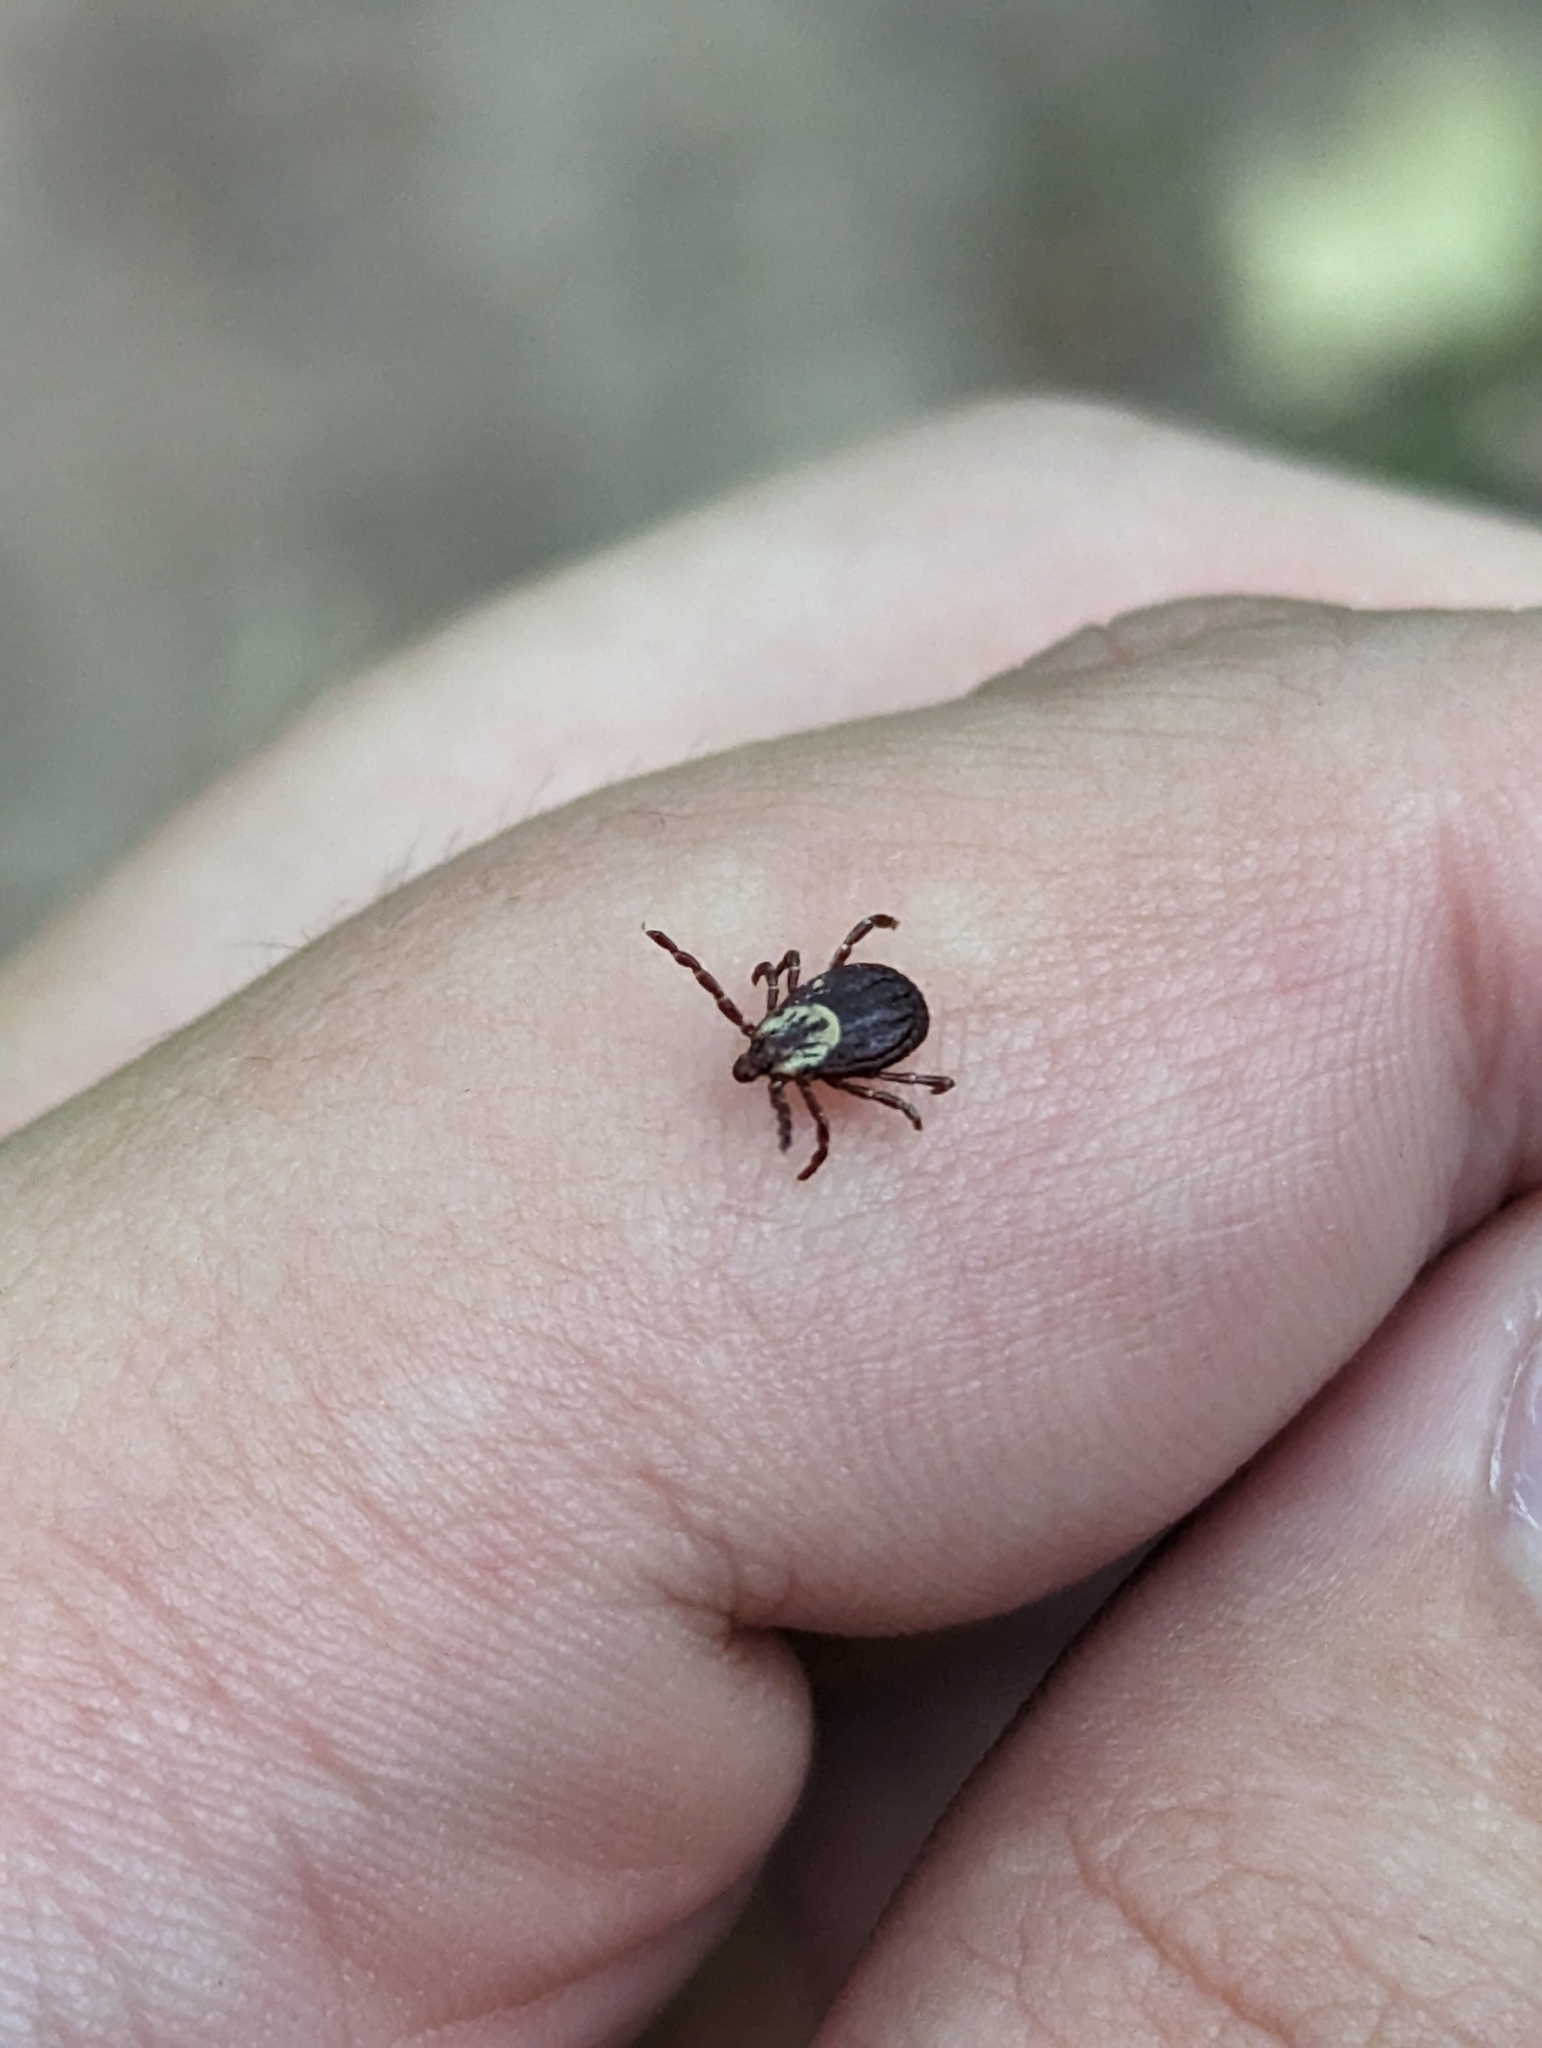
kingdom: Animalia
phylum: Arthropoda
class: Arachnida
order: Ixodida
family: Ixodidae
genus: Dermacentor
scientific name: Dermacentor variabilis
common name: American dog tick
